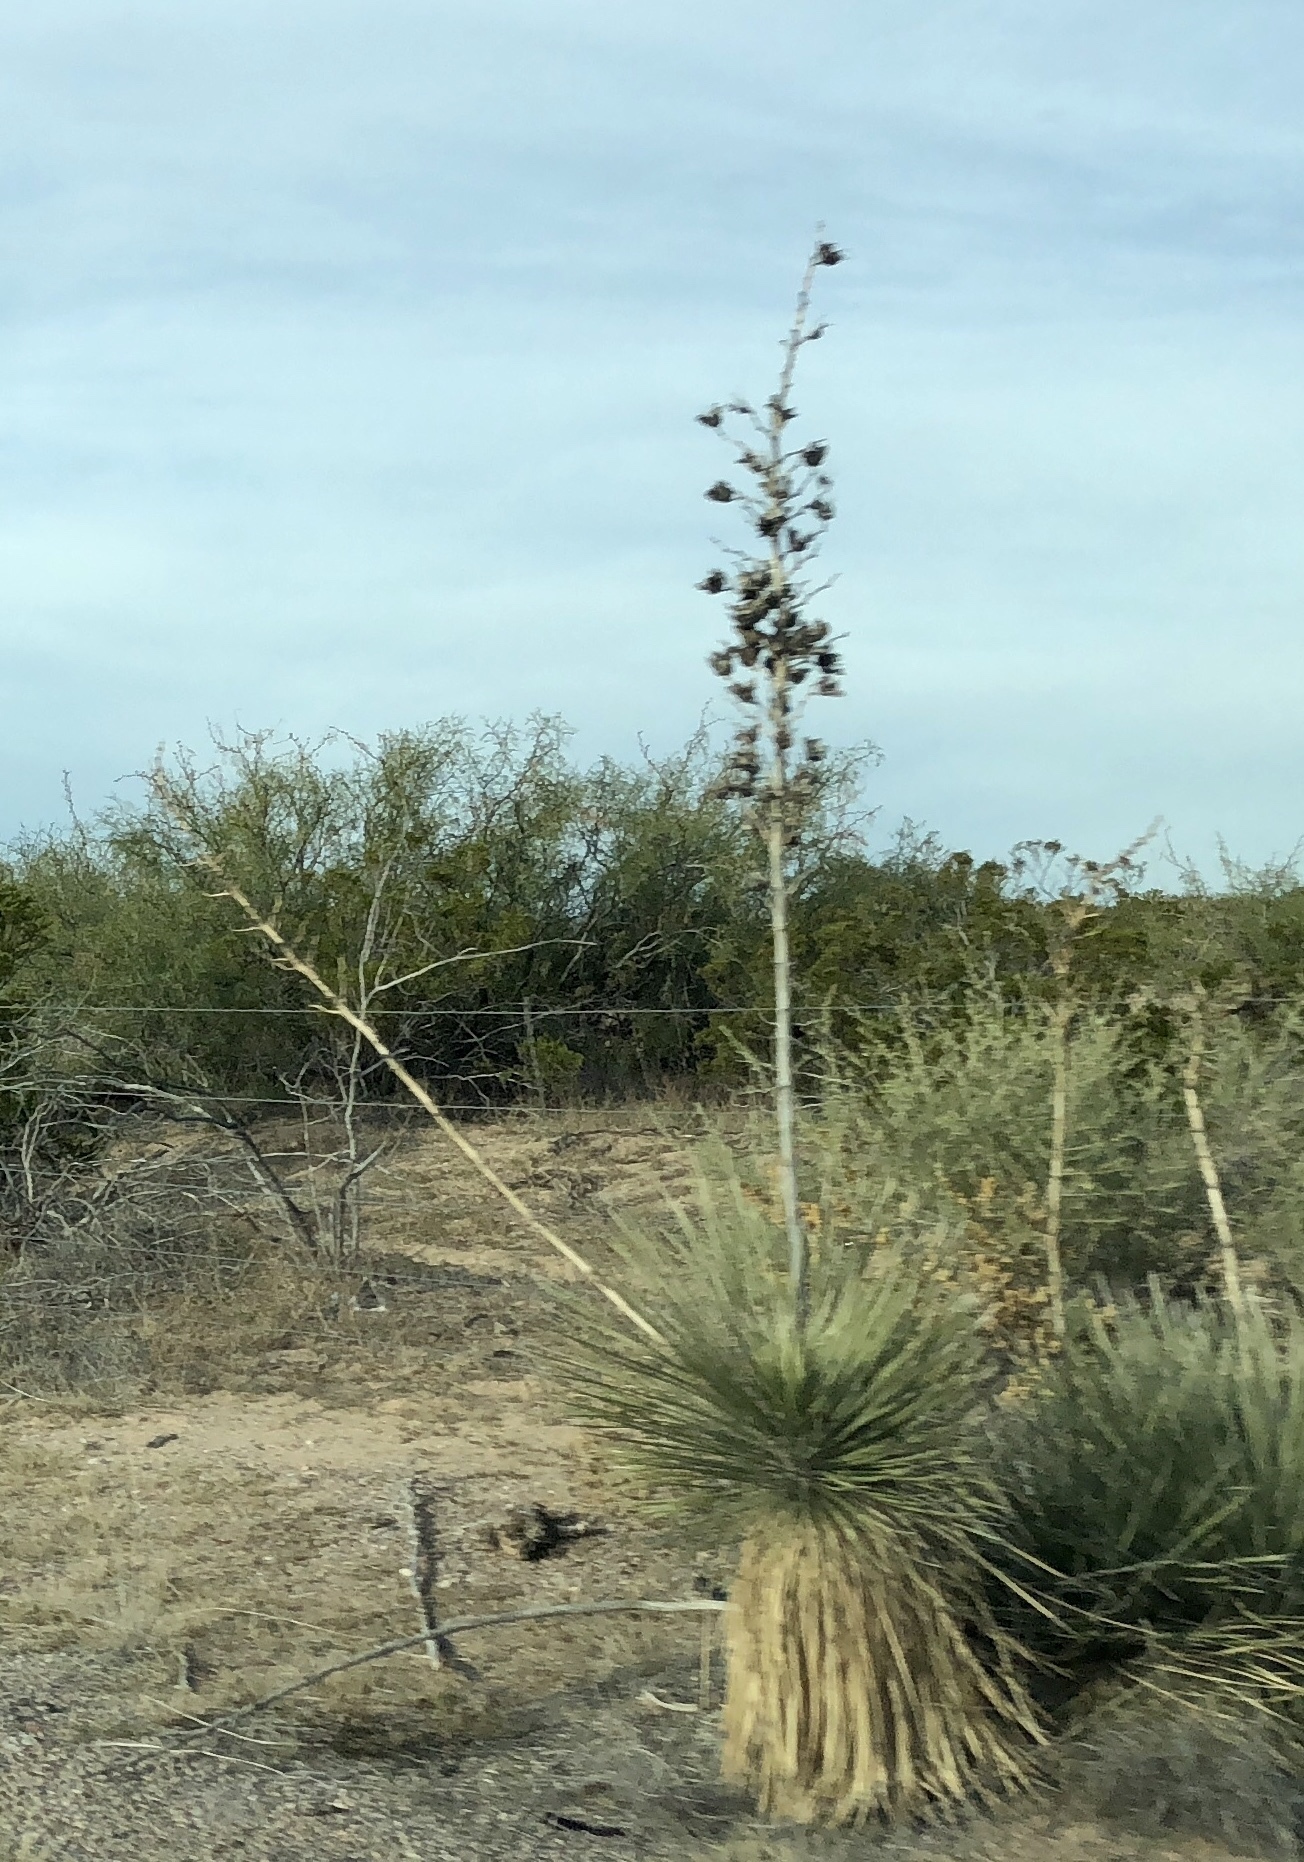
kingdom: Plantae
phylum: Tracheophyta
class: Liliopsida
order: Asparagales
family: Asparagaceae
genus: Yucca
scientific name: Yucca elata
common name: Palmella
